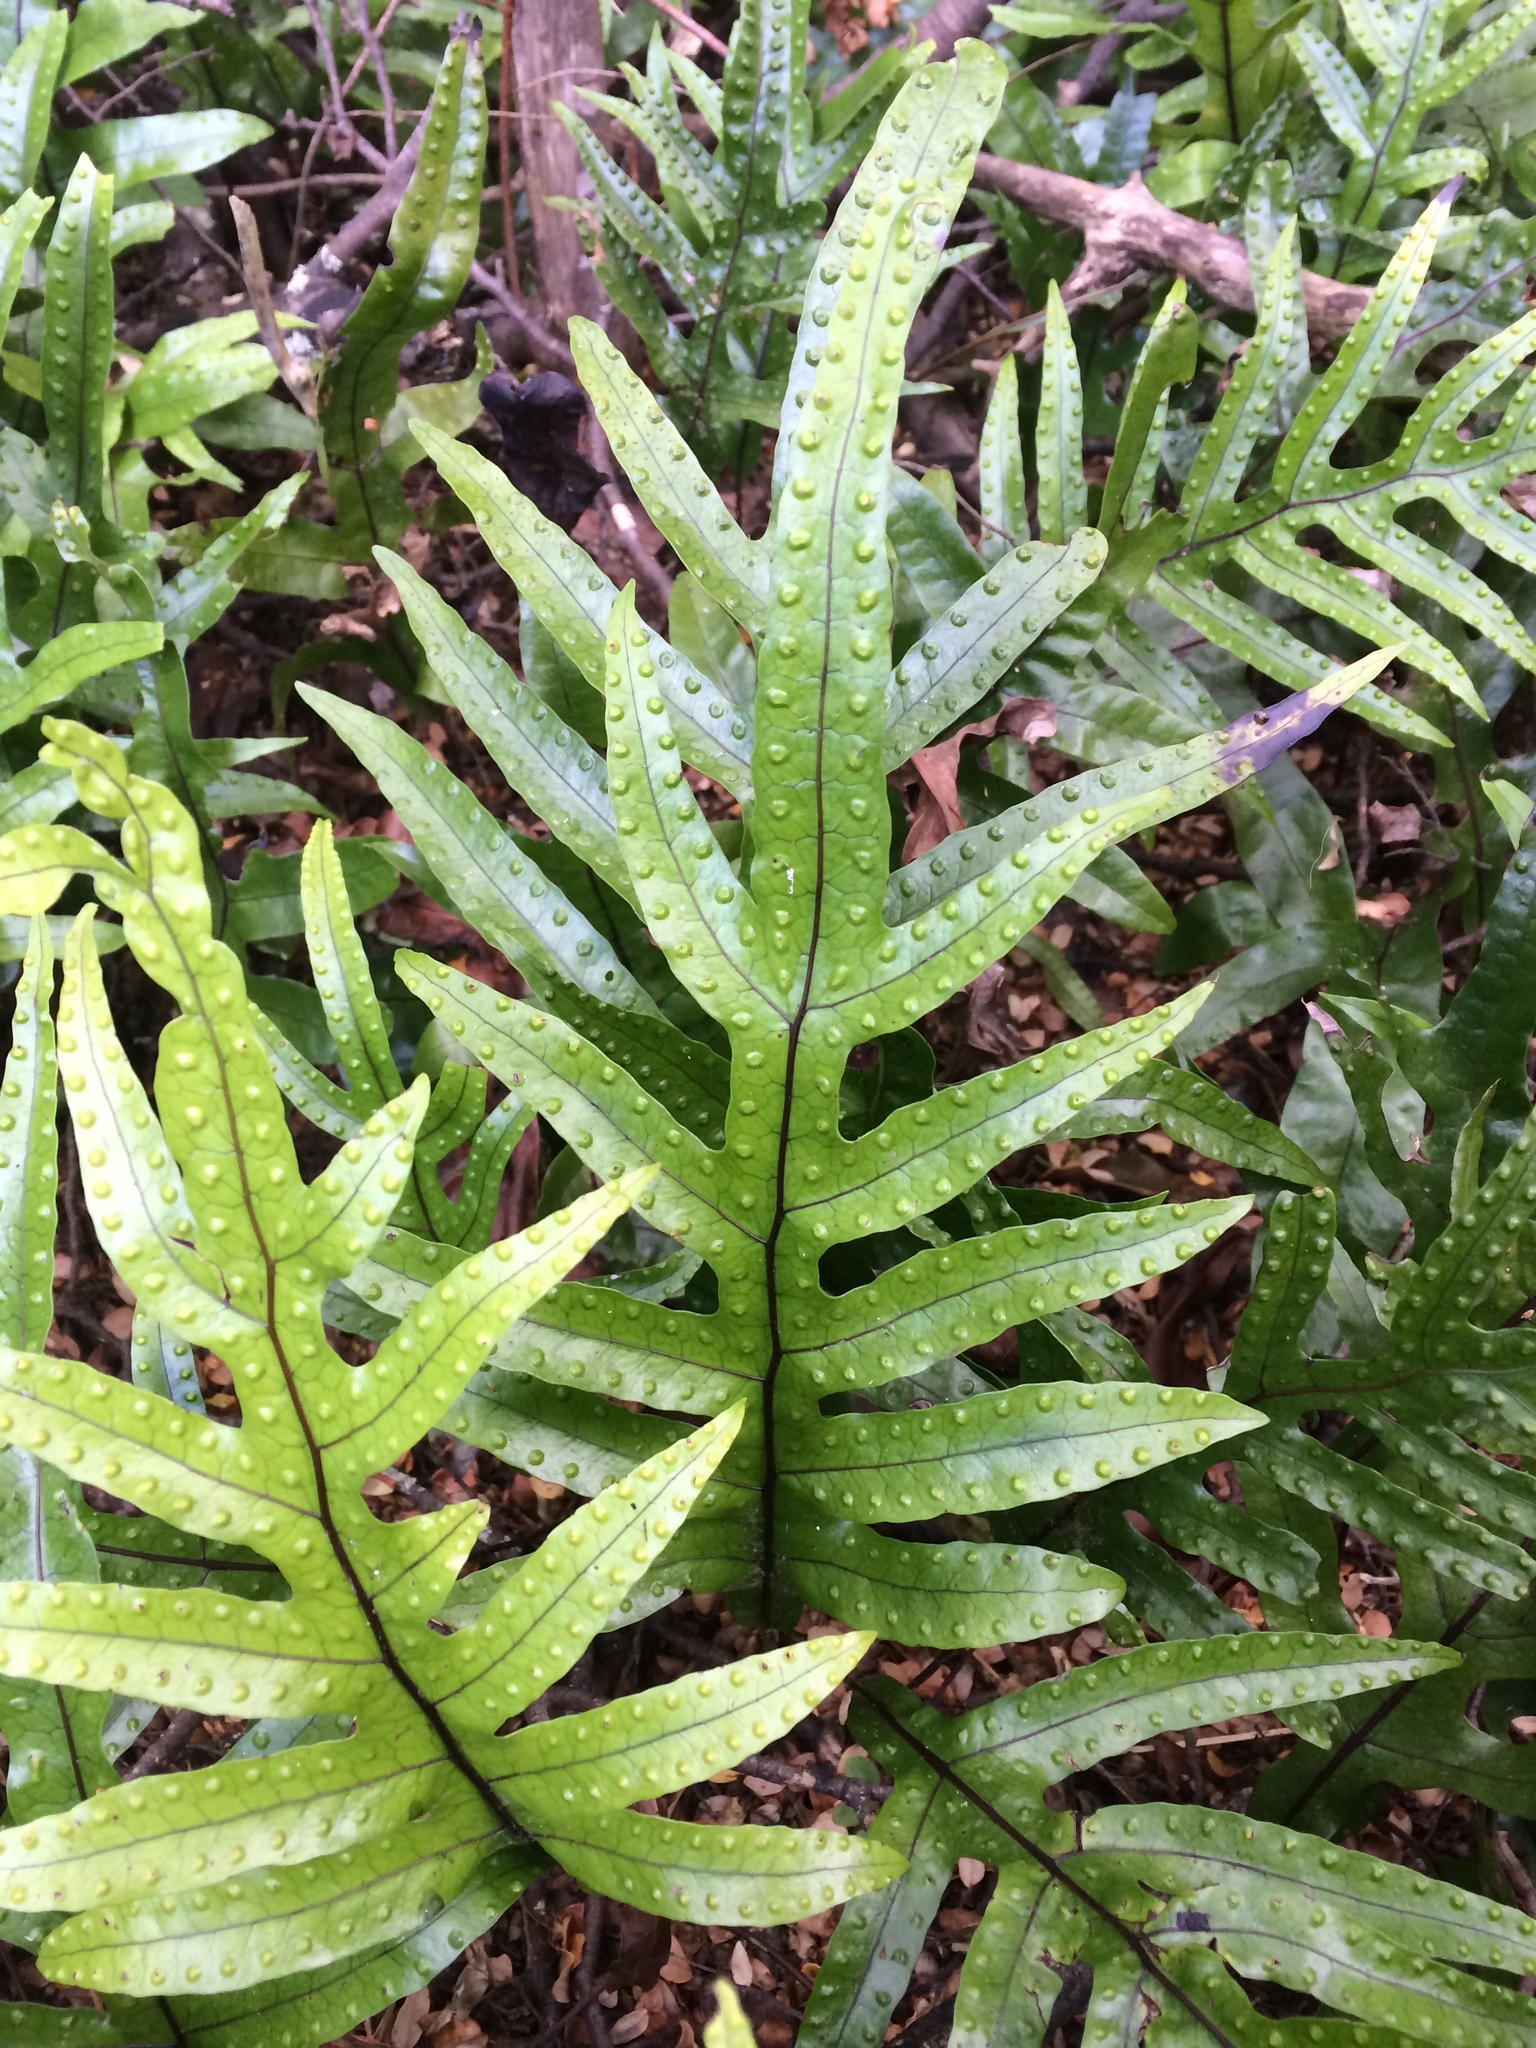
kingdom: Plantae
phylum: Tracheophyta
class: Polypodiopsida
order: Polypodiales
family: Polypodiaceae
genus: Lecanopteris
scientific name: Lecanopteris pustulata
